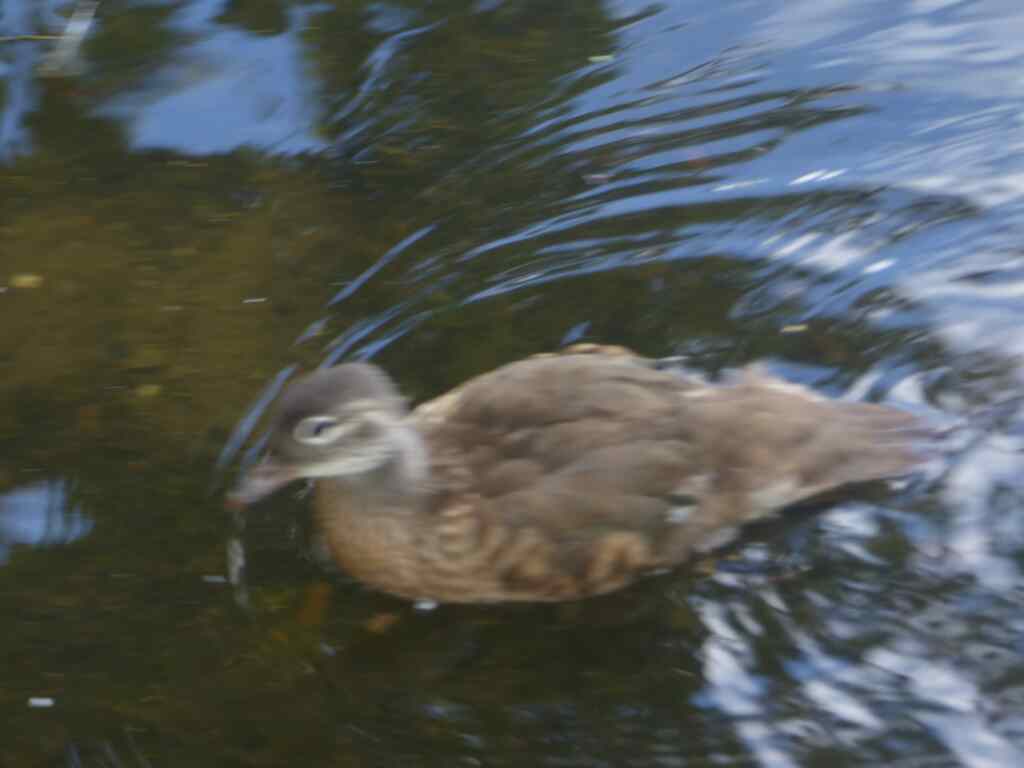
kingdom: Animalia
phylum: Chordata
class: Aves
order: Anseriformes
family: Anatidae
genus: Aix
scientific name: Aix galericulata
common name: Mandarin duck
